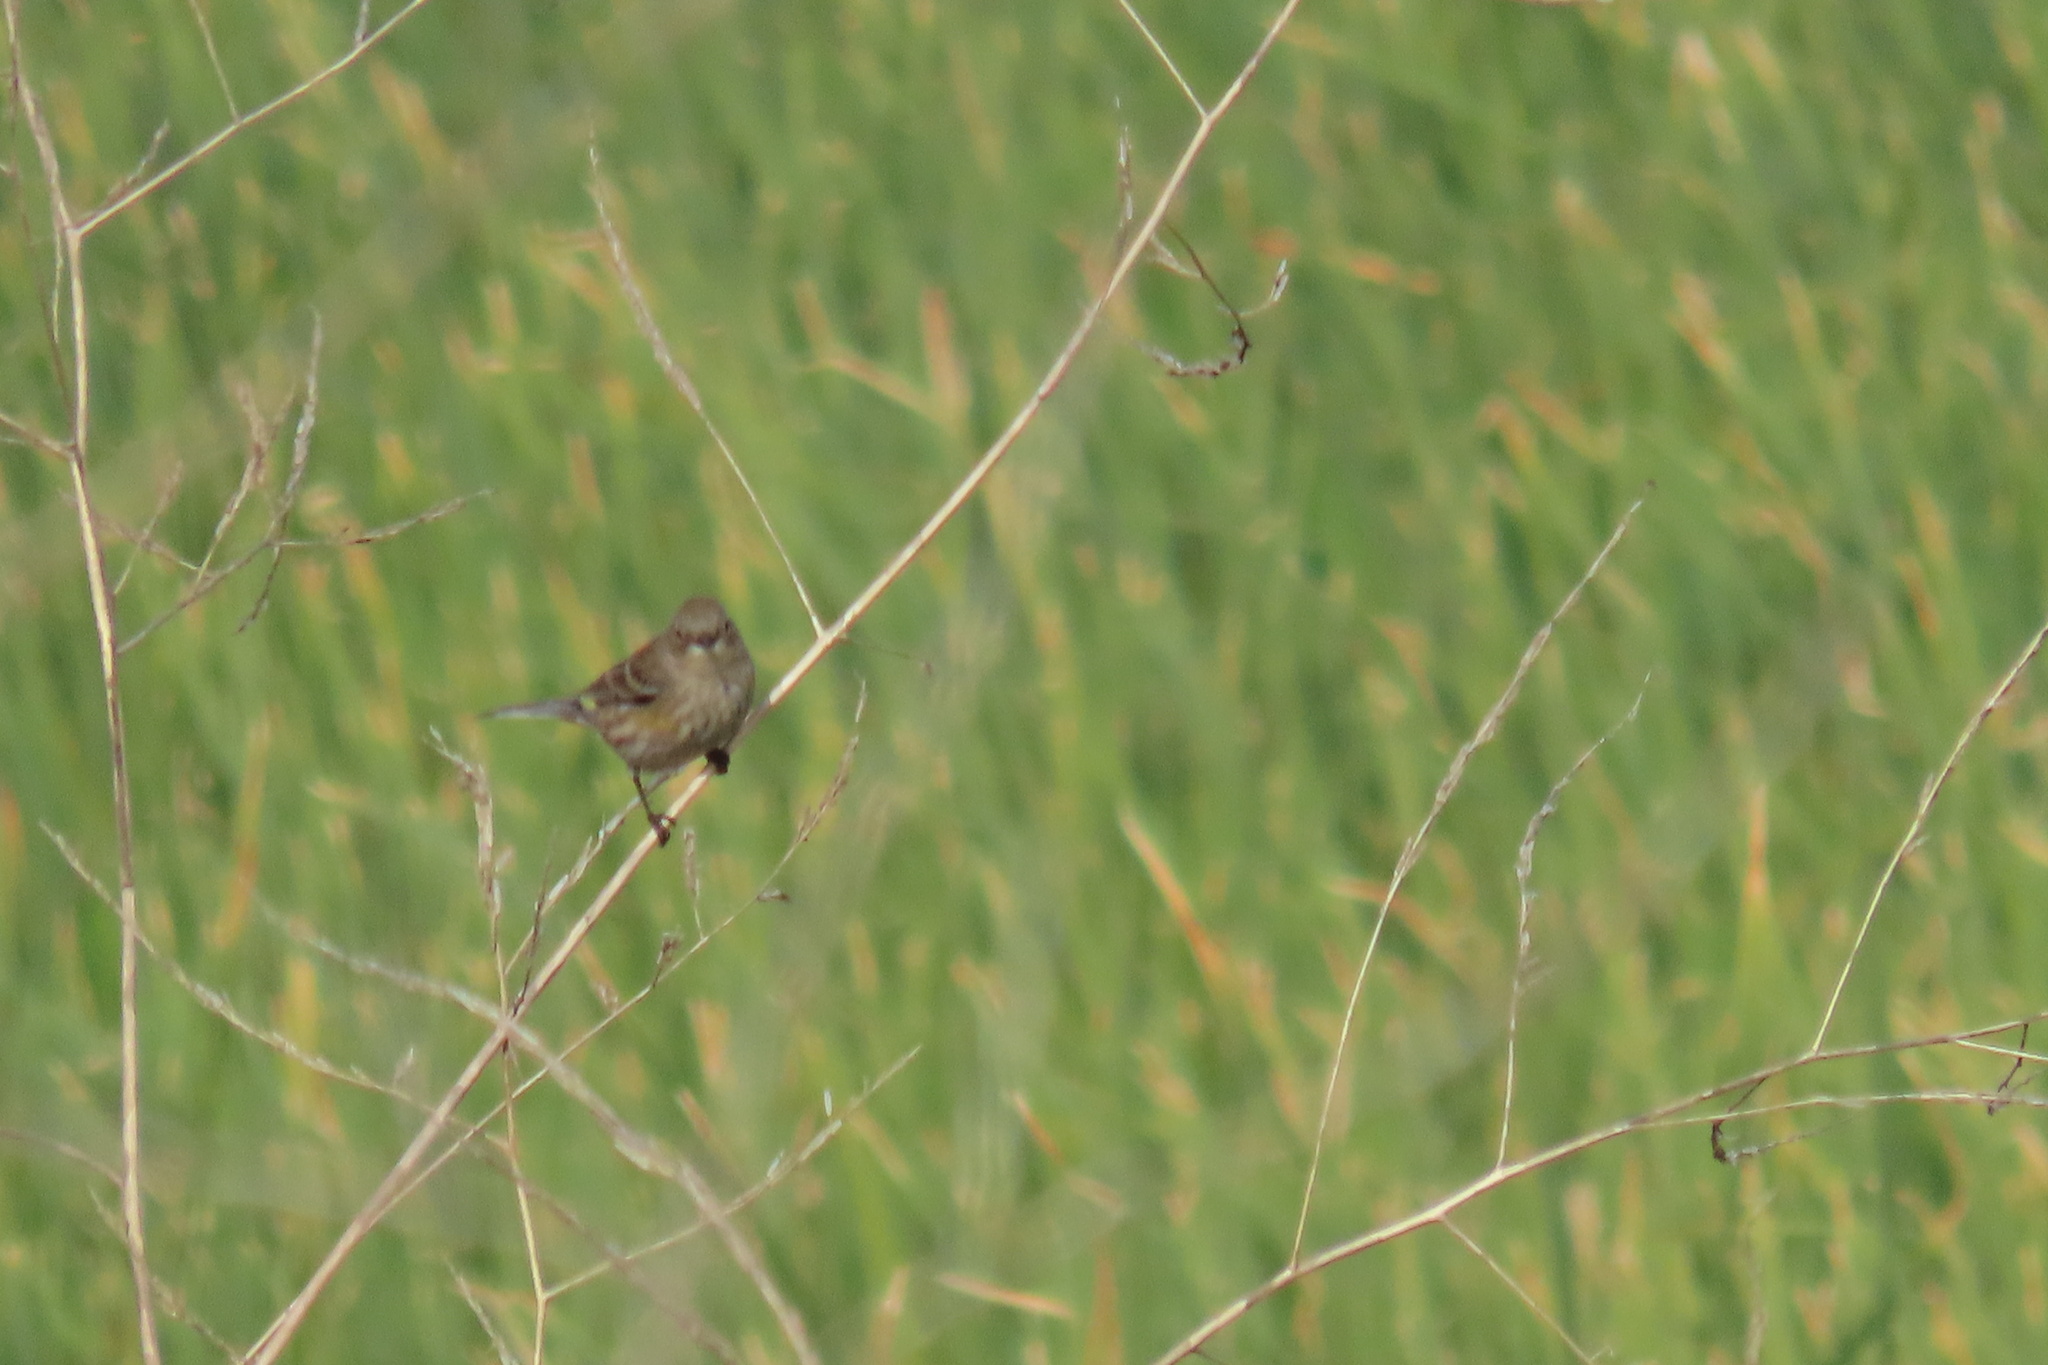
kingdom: Animalia
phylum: Chordata
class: Aves
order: Passeriformes
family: Parulidae
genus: Setophaga
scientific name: Setophaga coronata
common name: Myrtle warbler
